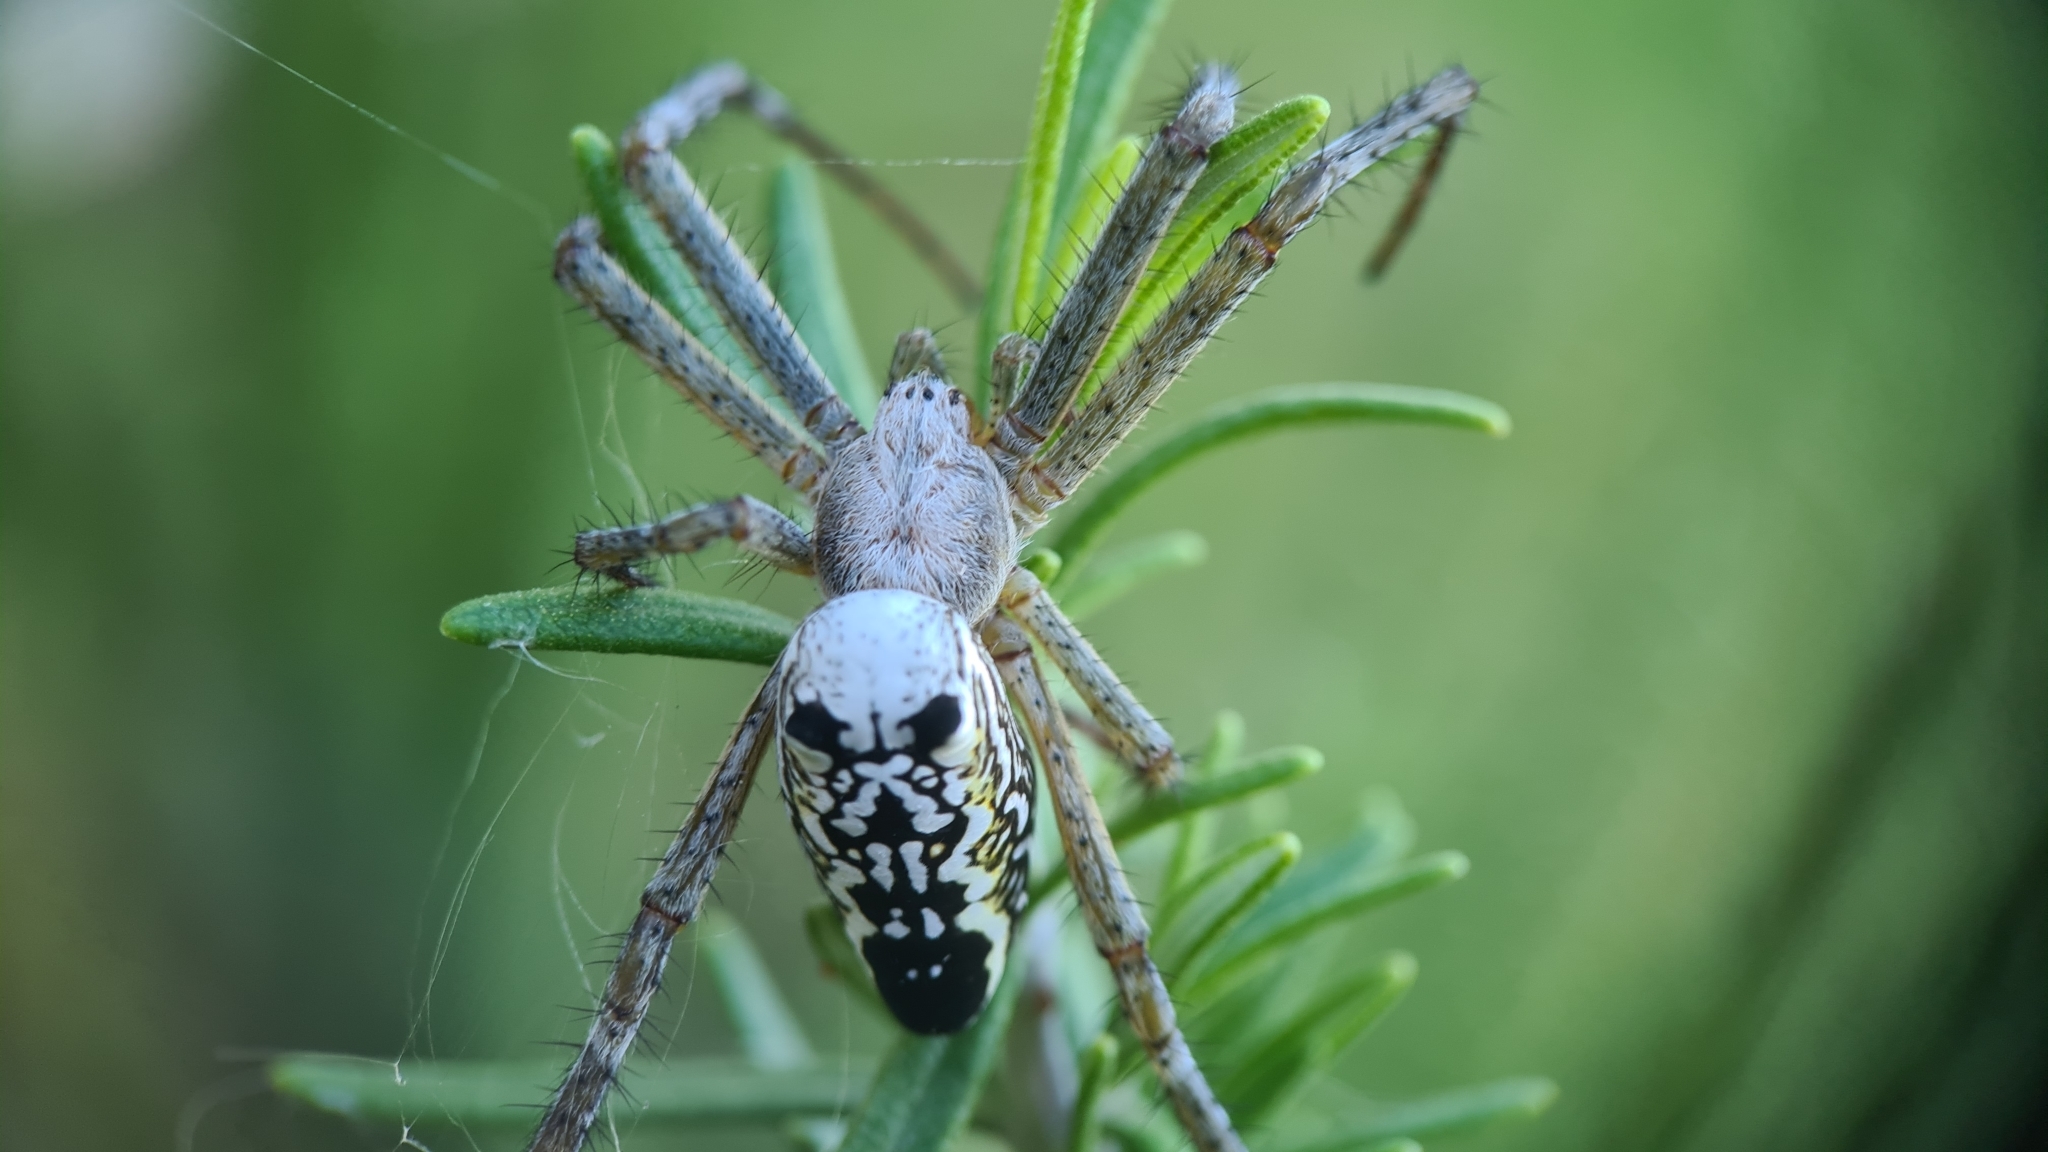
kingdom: Chromista
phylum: Ochrophyta
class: Dictyochophyceae
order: Pedinellales
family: Cyrtophoraceae
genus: Cyrtophora
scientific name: Cyrtophora moluccensis
